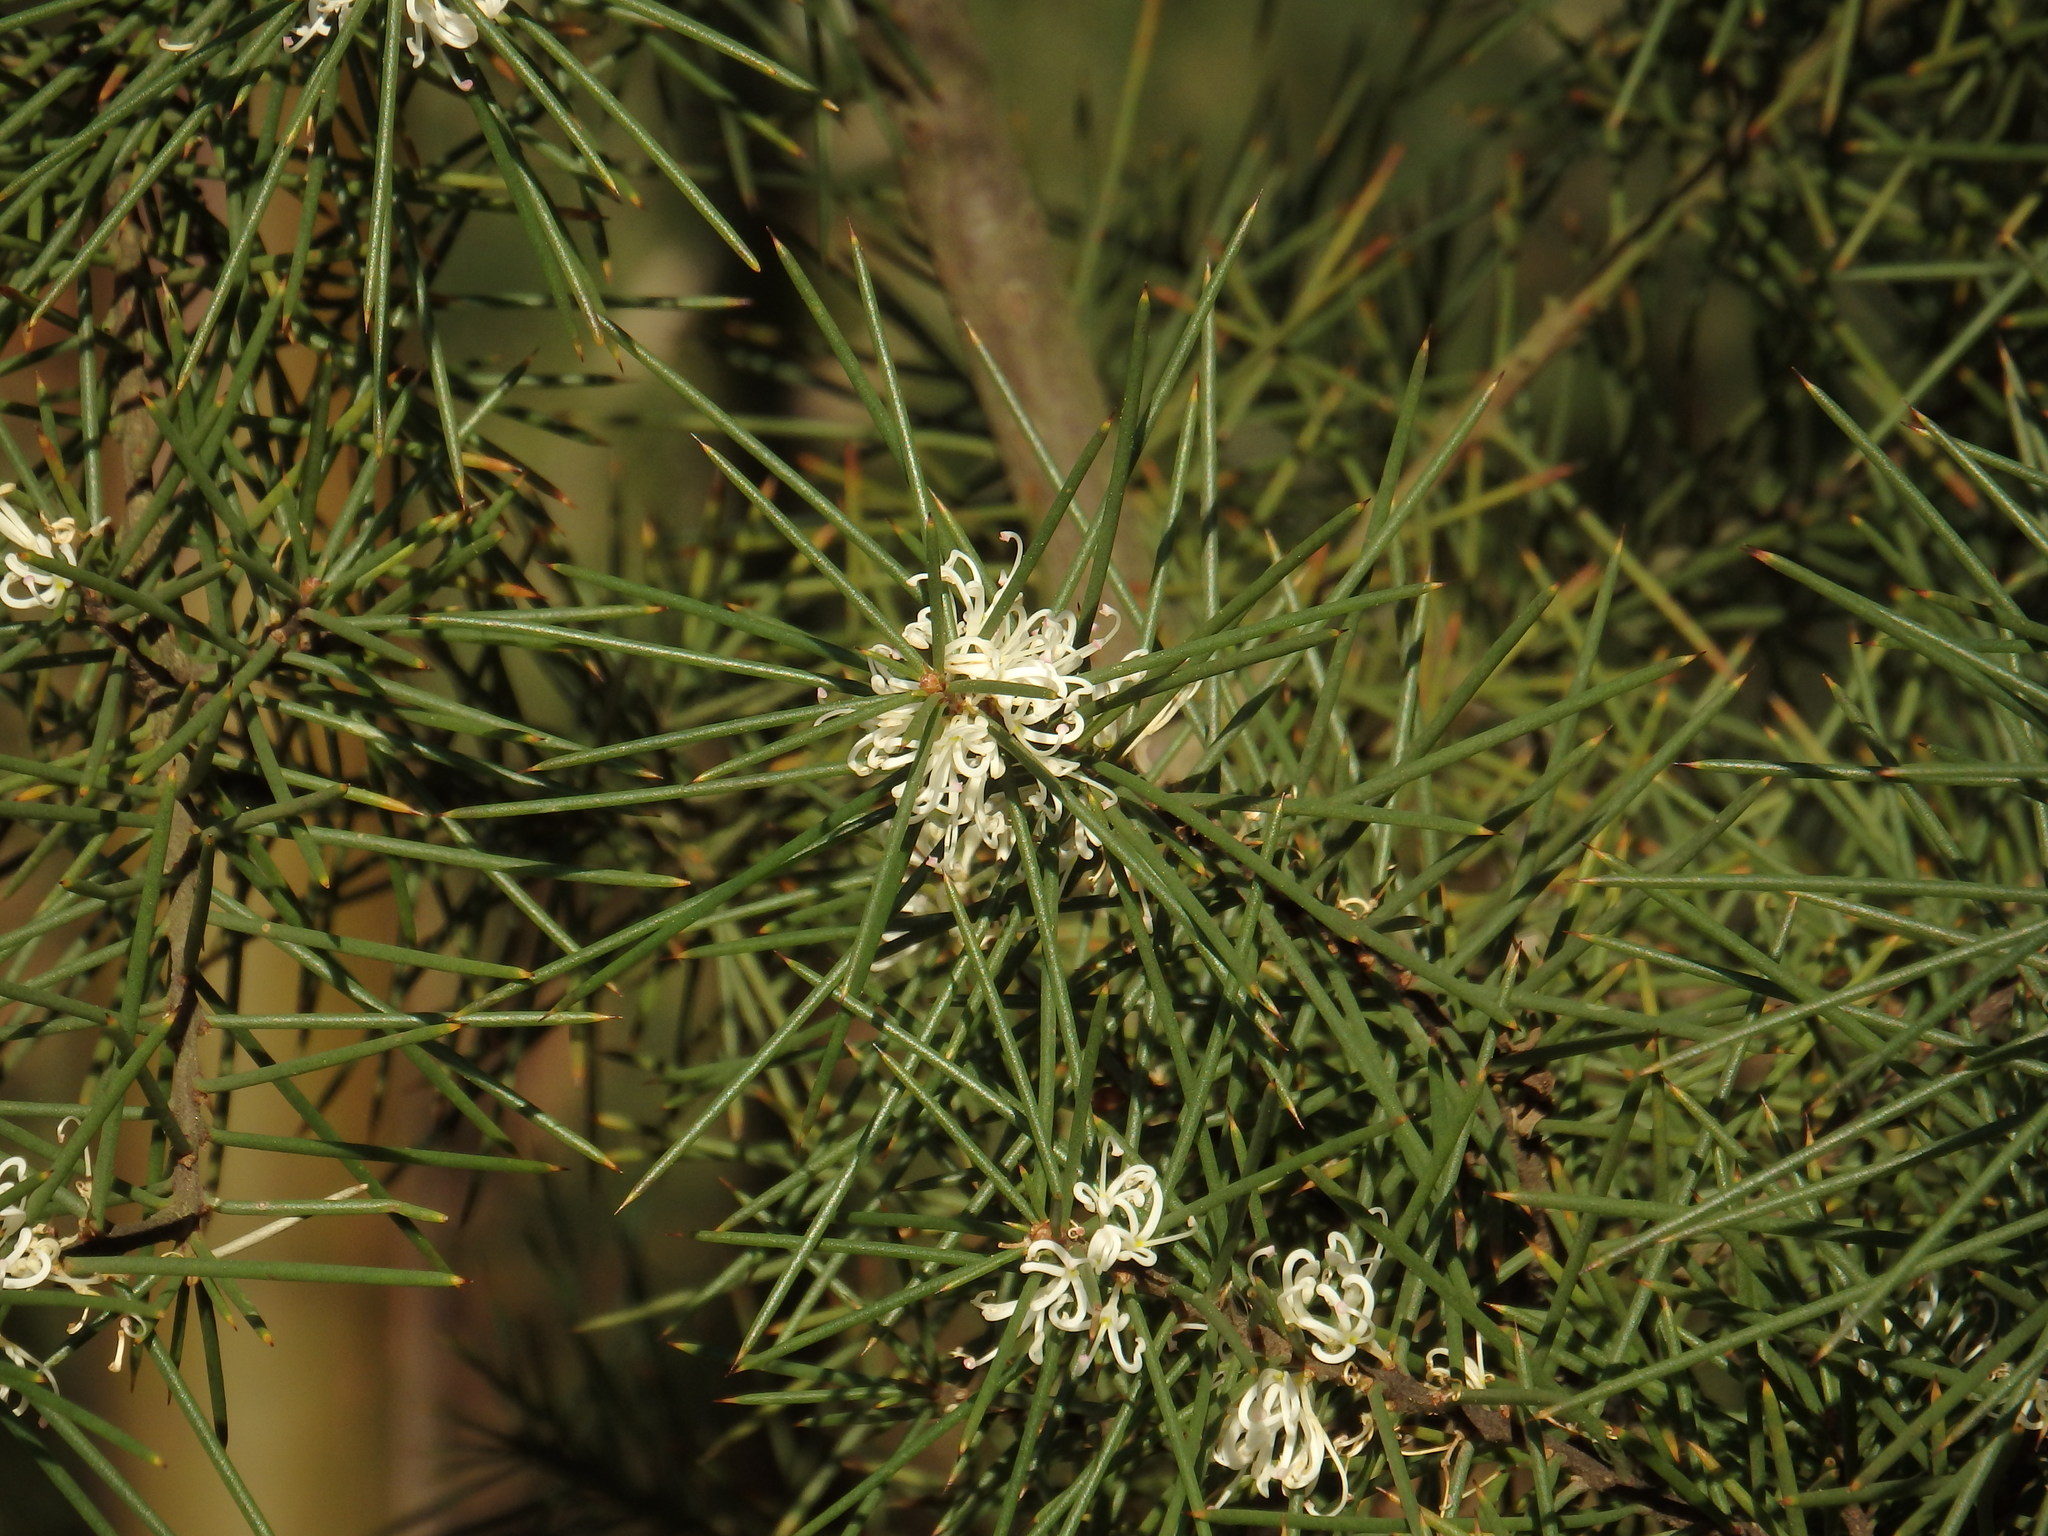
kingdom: Plantae
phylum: Tracheophyta
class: Magnoliopsida
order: Proteales
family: Proteaceae
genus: Hakea
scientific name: Hakea decurrens
